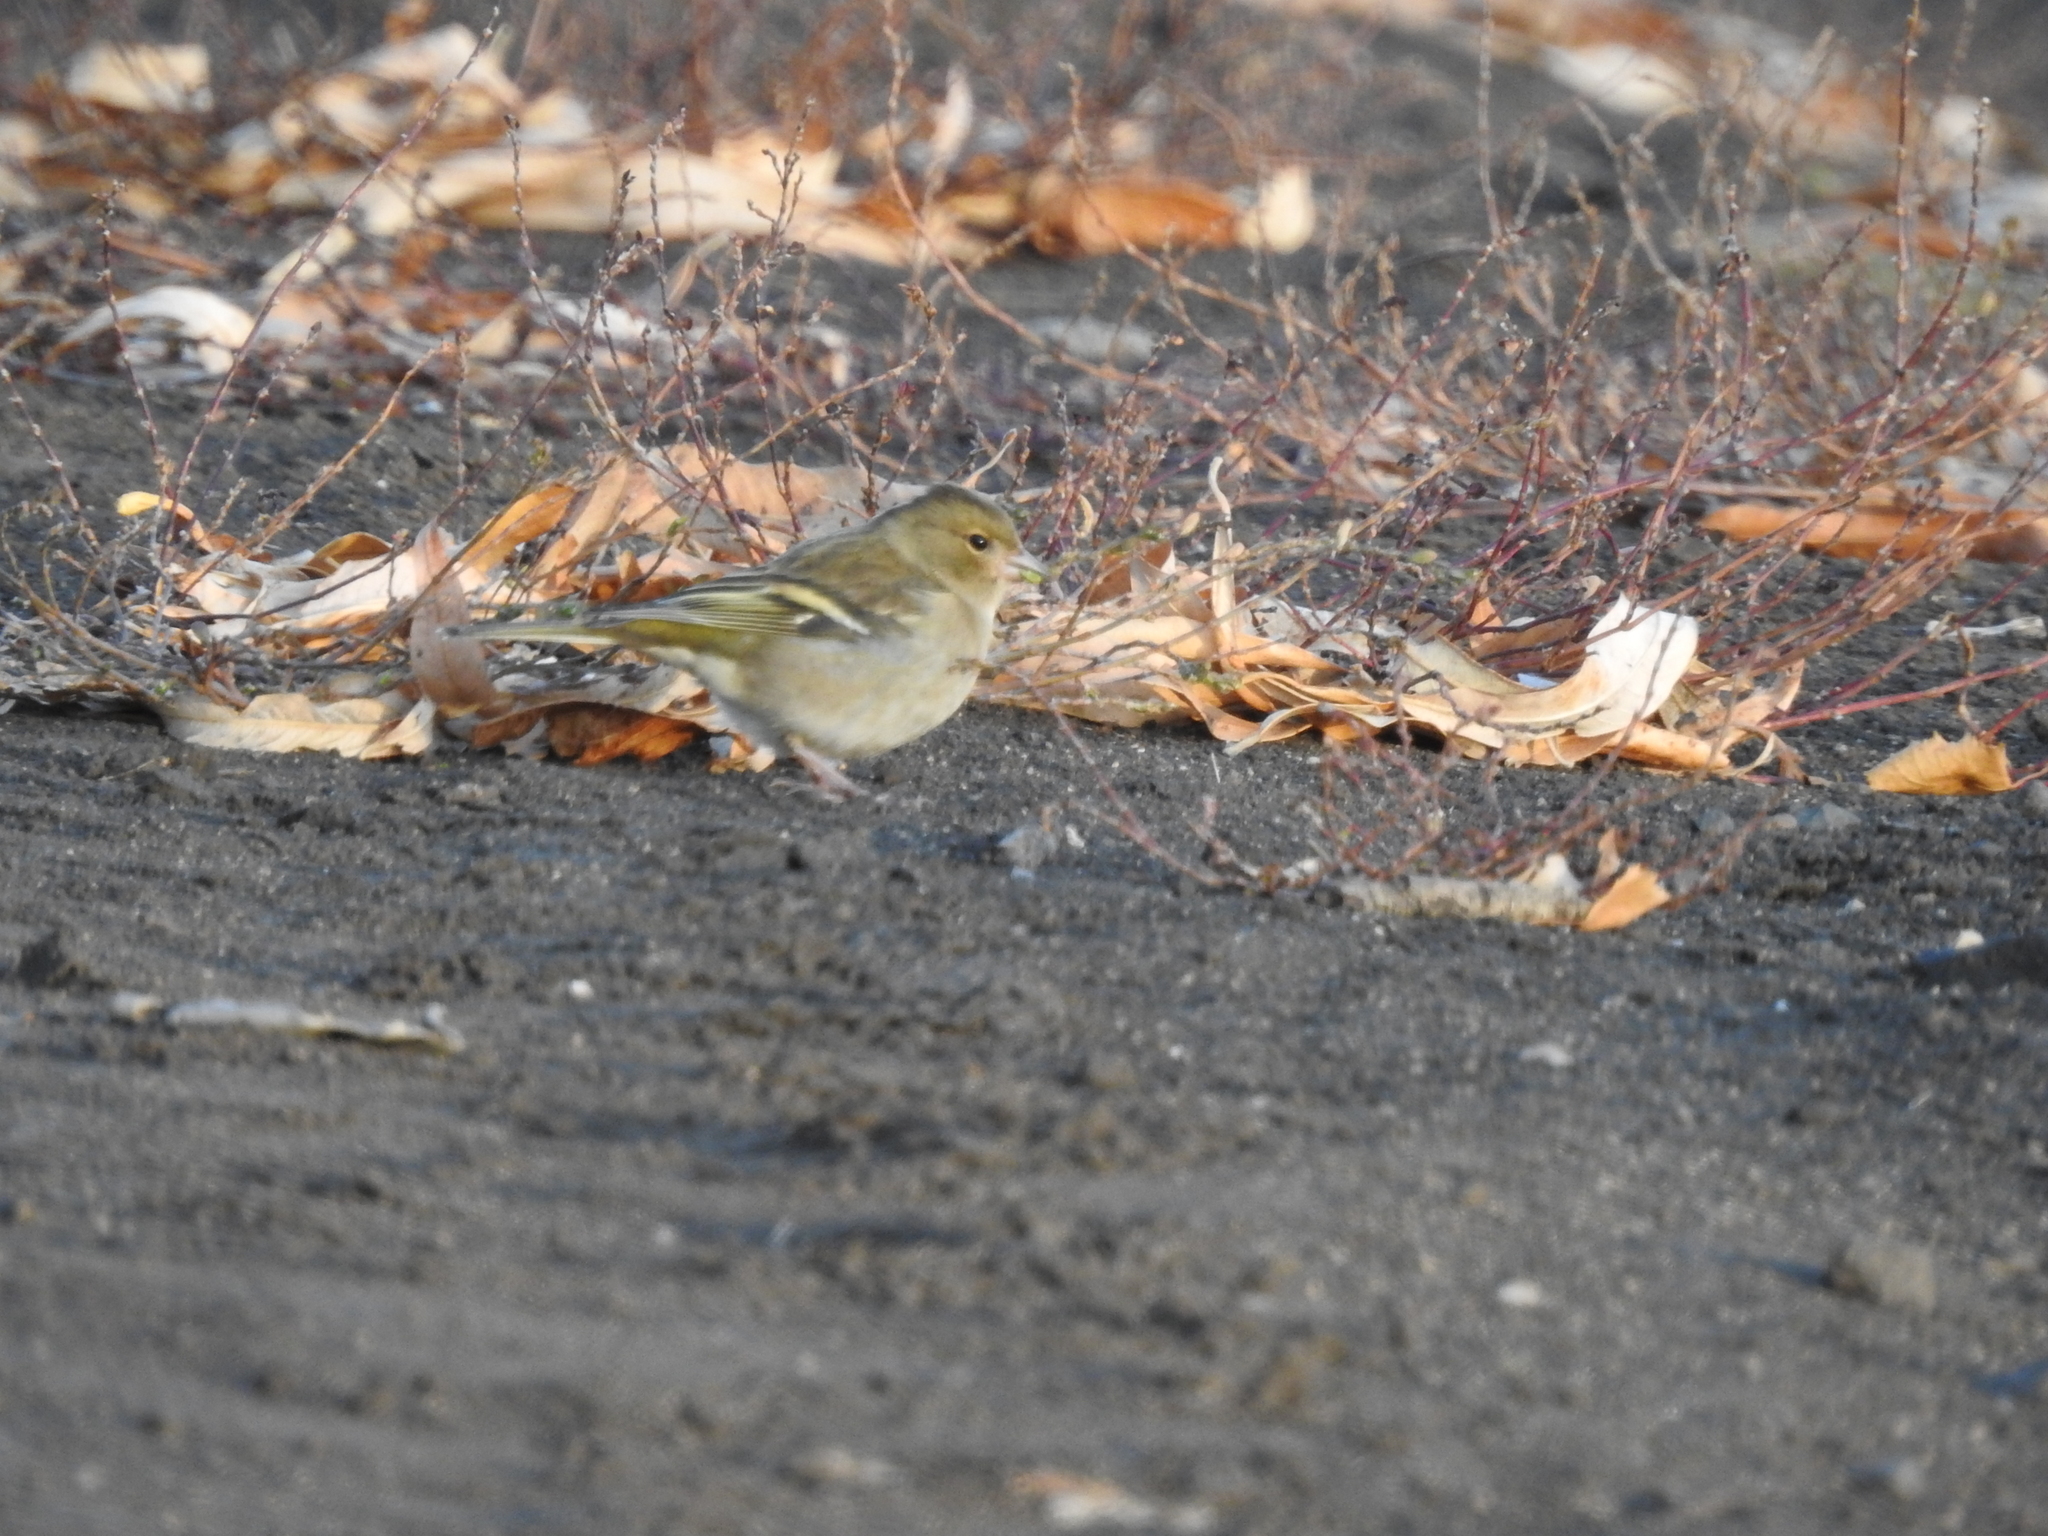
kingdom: Animalia
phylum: Chordata
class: Aves
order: Passeriformes
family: Fringillidae
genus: Fringilla
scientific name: Fringilla coelebs
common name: Common chaffinch
